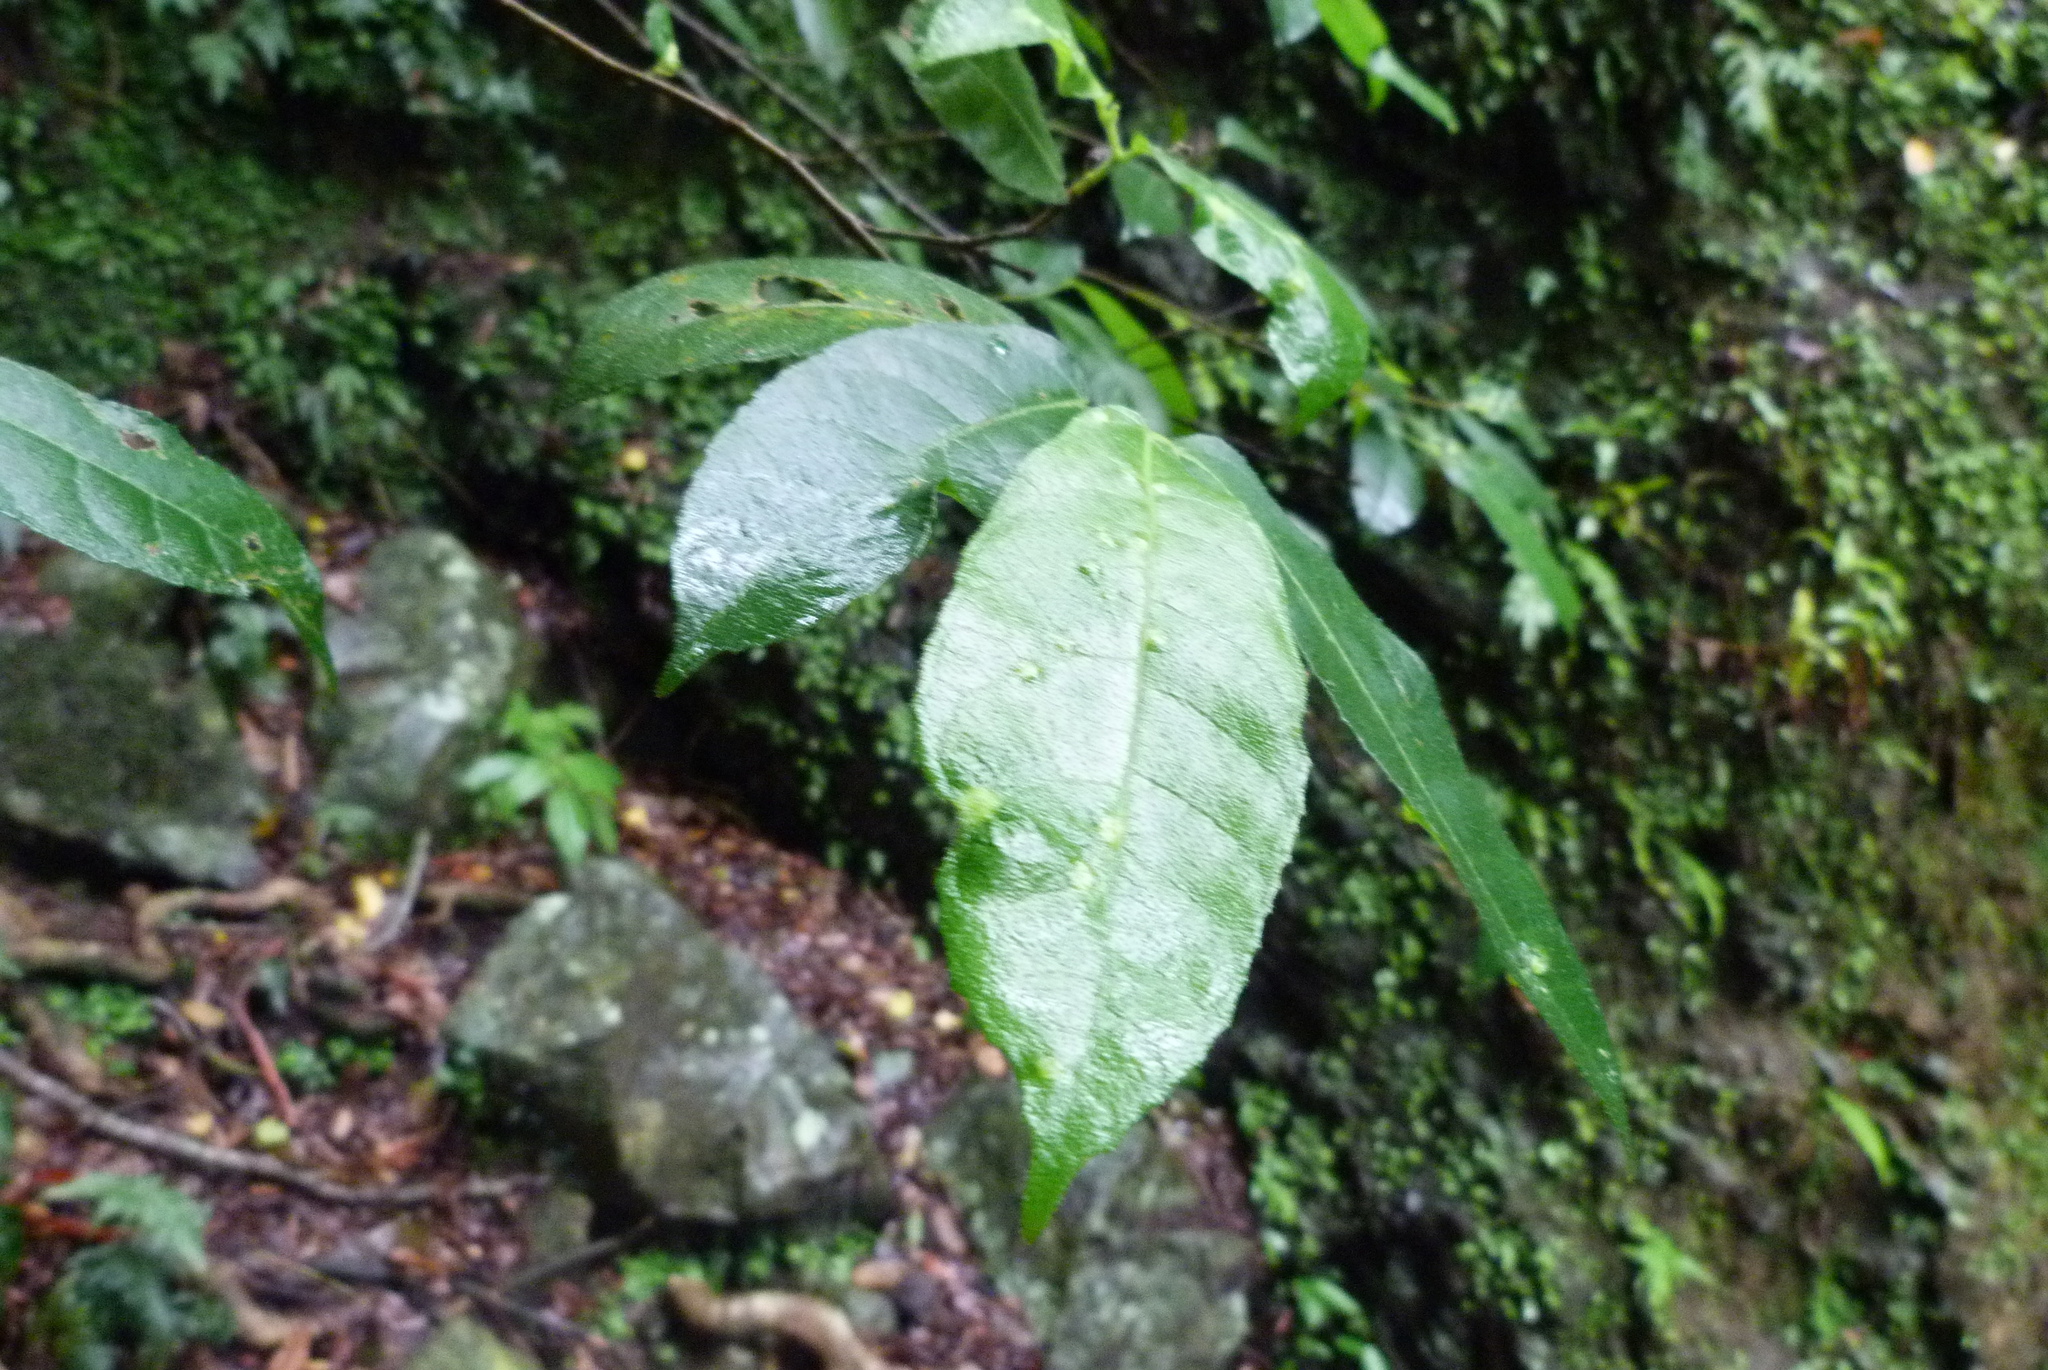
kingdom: Plantae
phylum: Tracheophyta
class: Magnoliopsida
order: Rosales
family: Moraceae
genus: Ficus
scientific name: Ficus coronata
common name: Creek sandpaper fig
